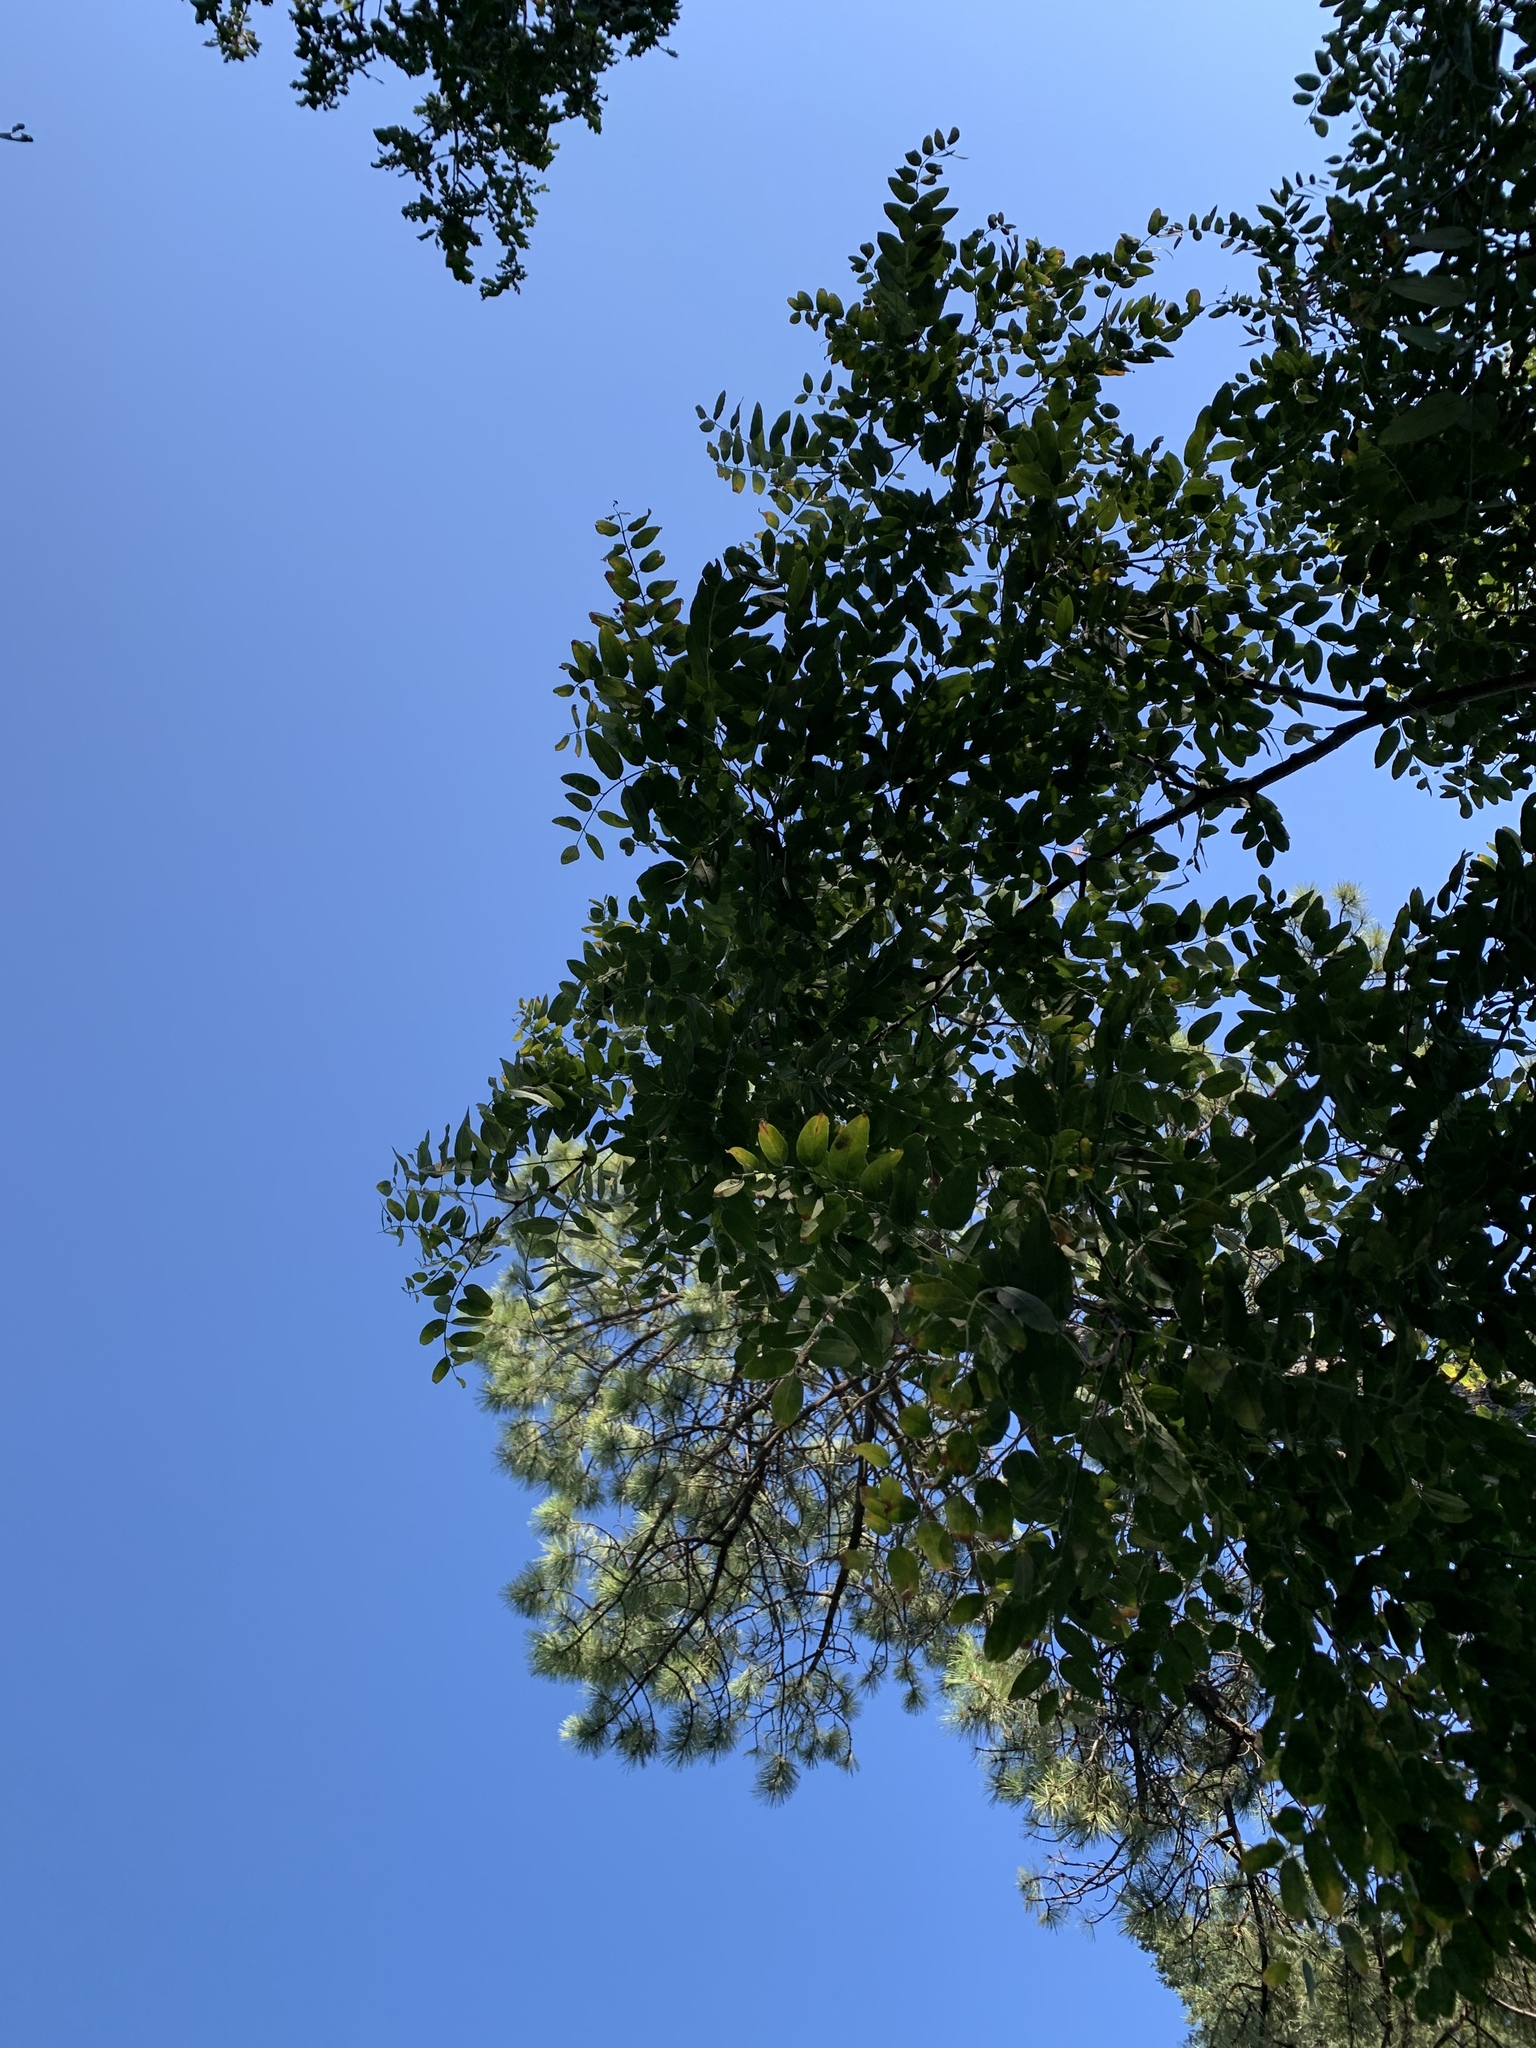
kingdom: Plantae
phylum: Tracheophyta
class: Magnoliopsida
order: Fabales
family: Fabaceae
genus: Robinia
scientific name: Robinia neomexicana
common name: New mexico locust
